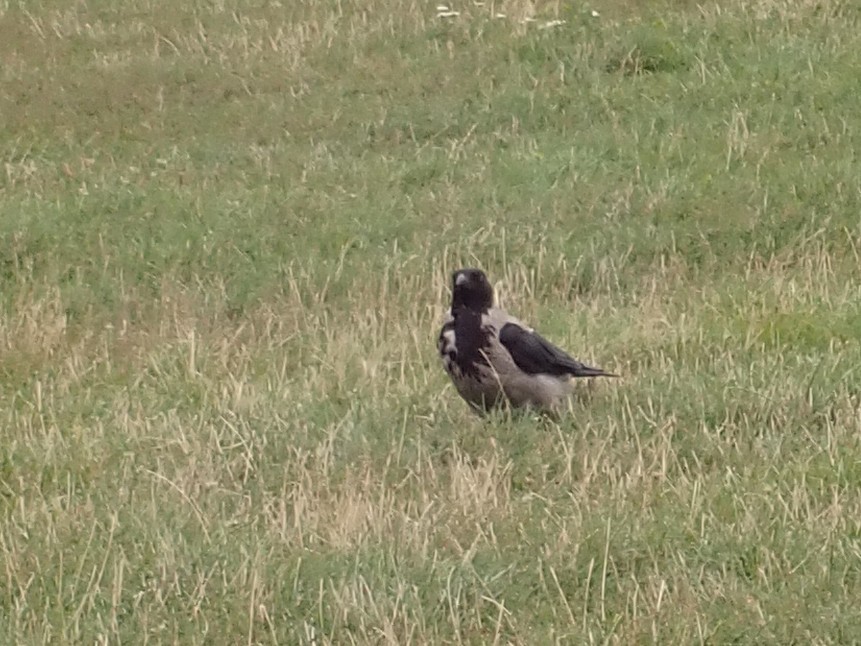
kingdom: Animalia
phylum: Chordata
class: Aves
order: Passeriformes
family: Corvidae
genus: Corvus
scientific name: Corvus cornix
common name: Hooded crow
